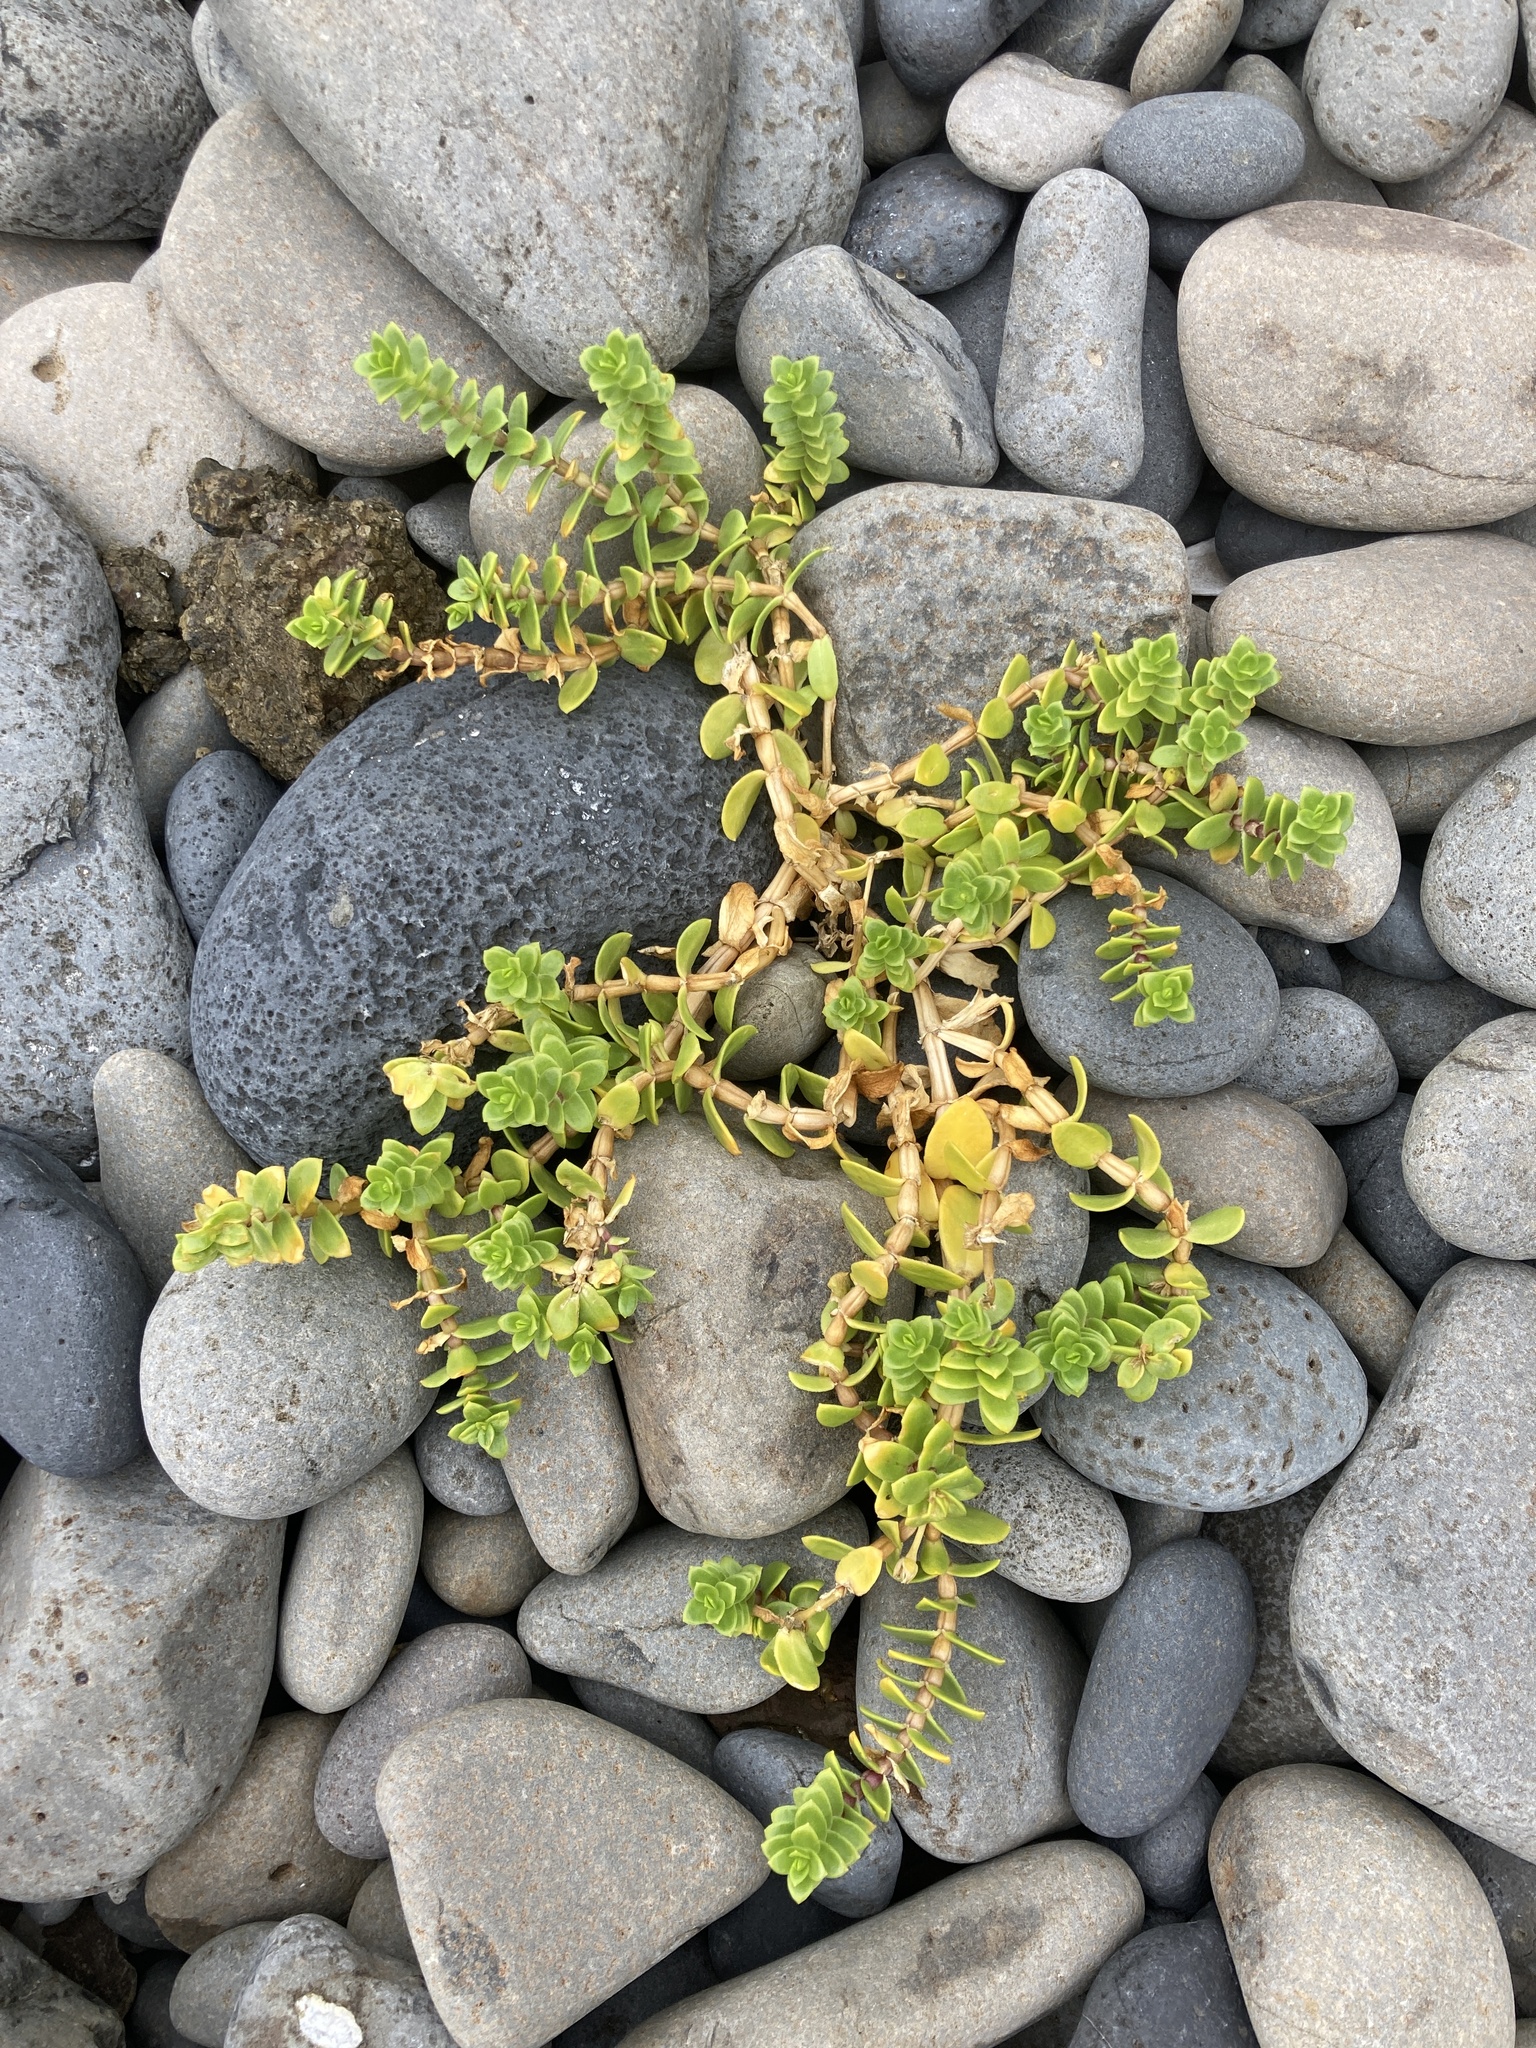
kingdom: Plantae
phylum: Tracheophyta
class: Magnoliopsida
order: Caryophyllales
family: Caryophyllaceae
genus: Honckenya
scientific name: Honckenya peploides
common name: Sea sandwort
